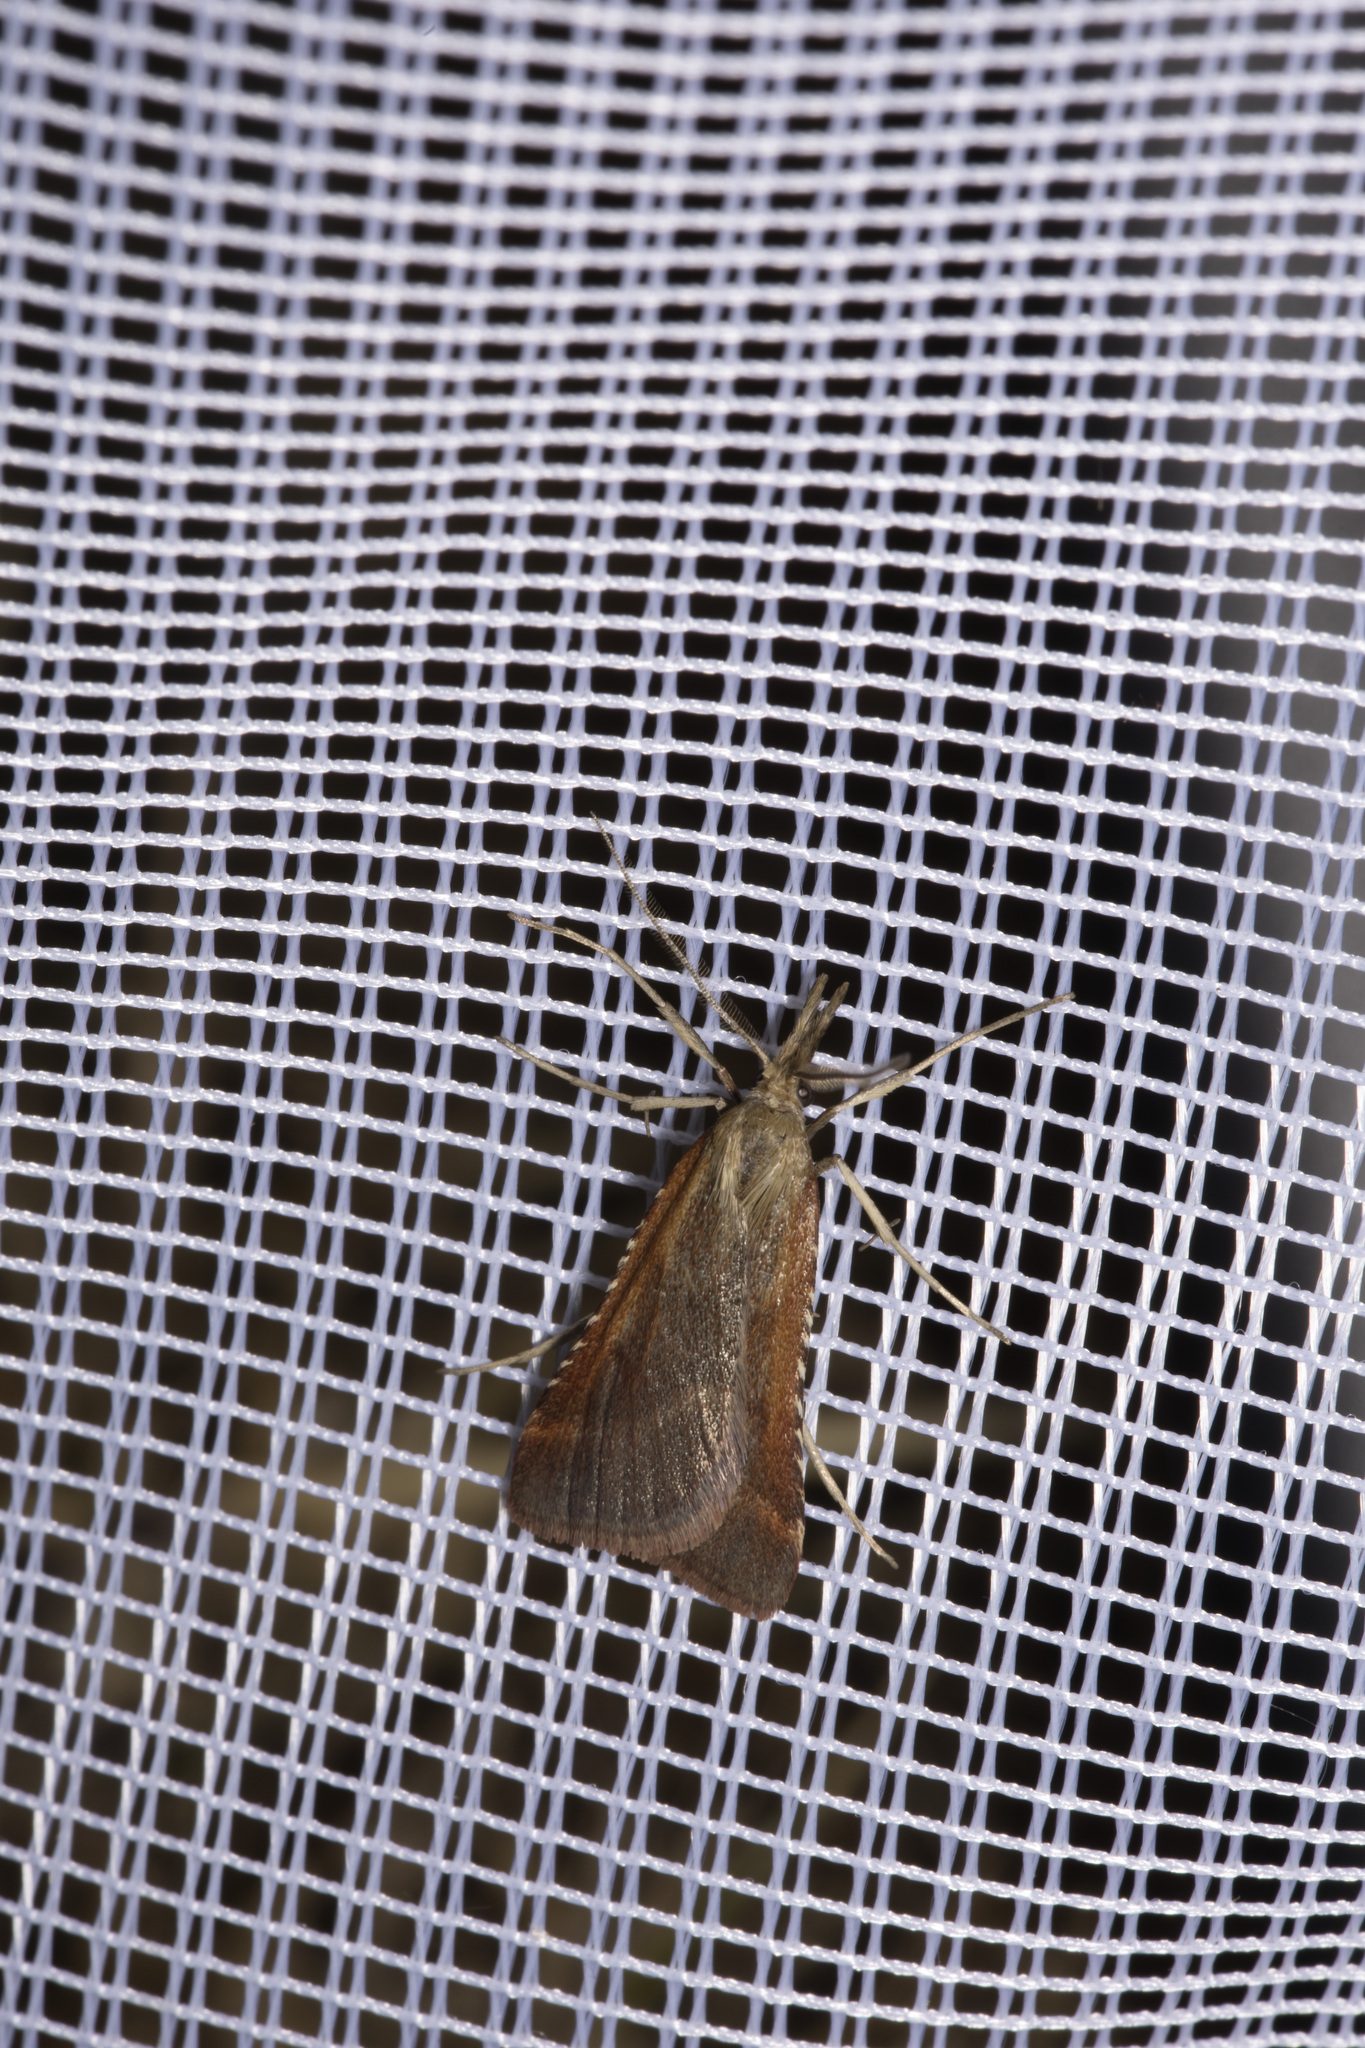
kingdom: Animalia
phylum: Arthropoda
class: Insecta
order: Lepidoptera
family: Pyralidae
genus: Synaphe
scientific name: Synaphe punctalis
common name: Long-legged tabby
